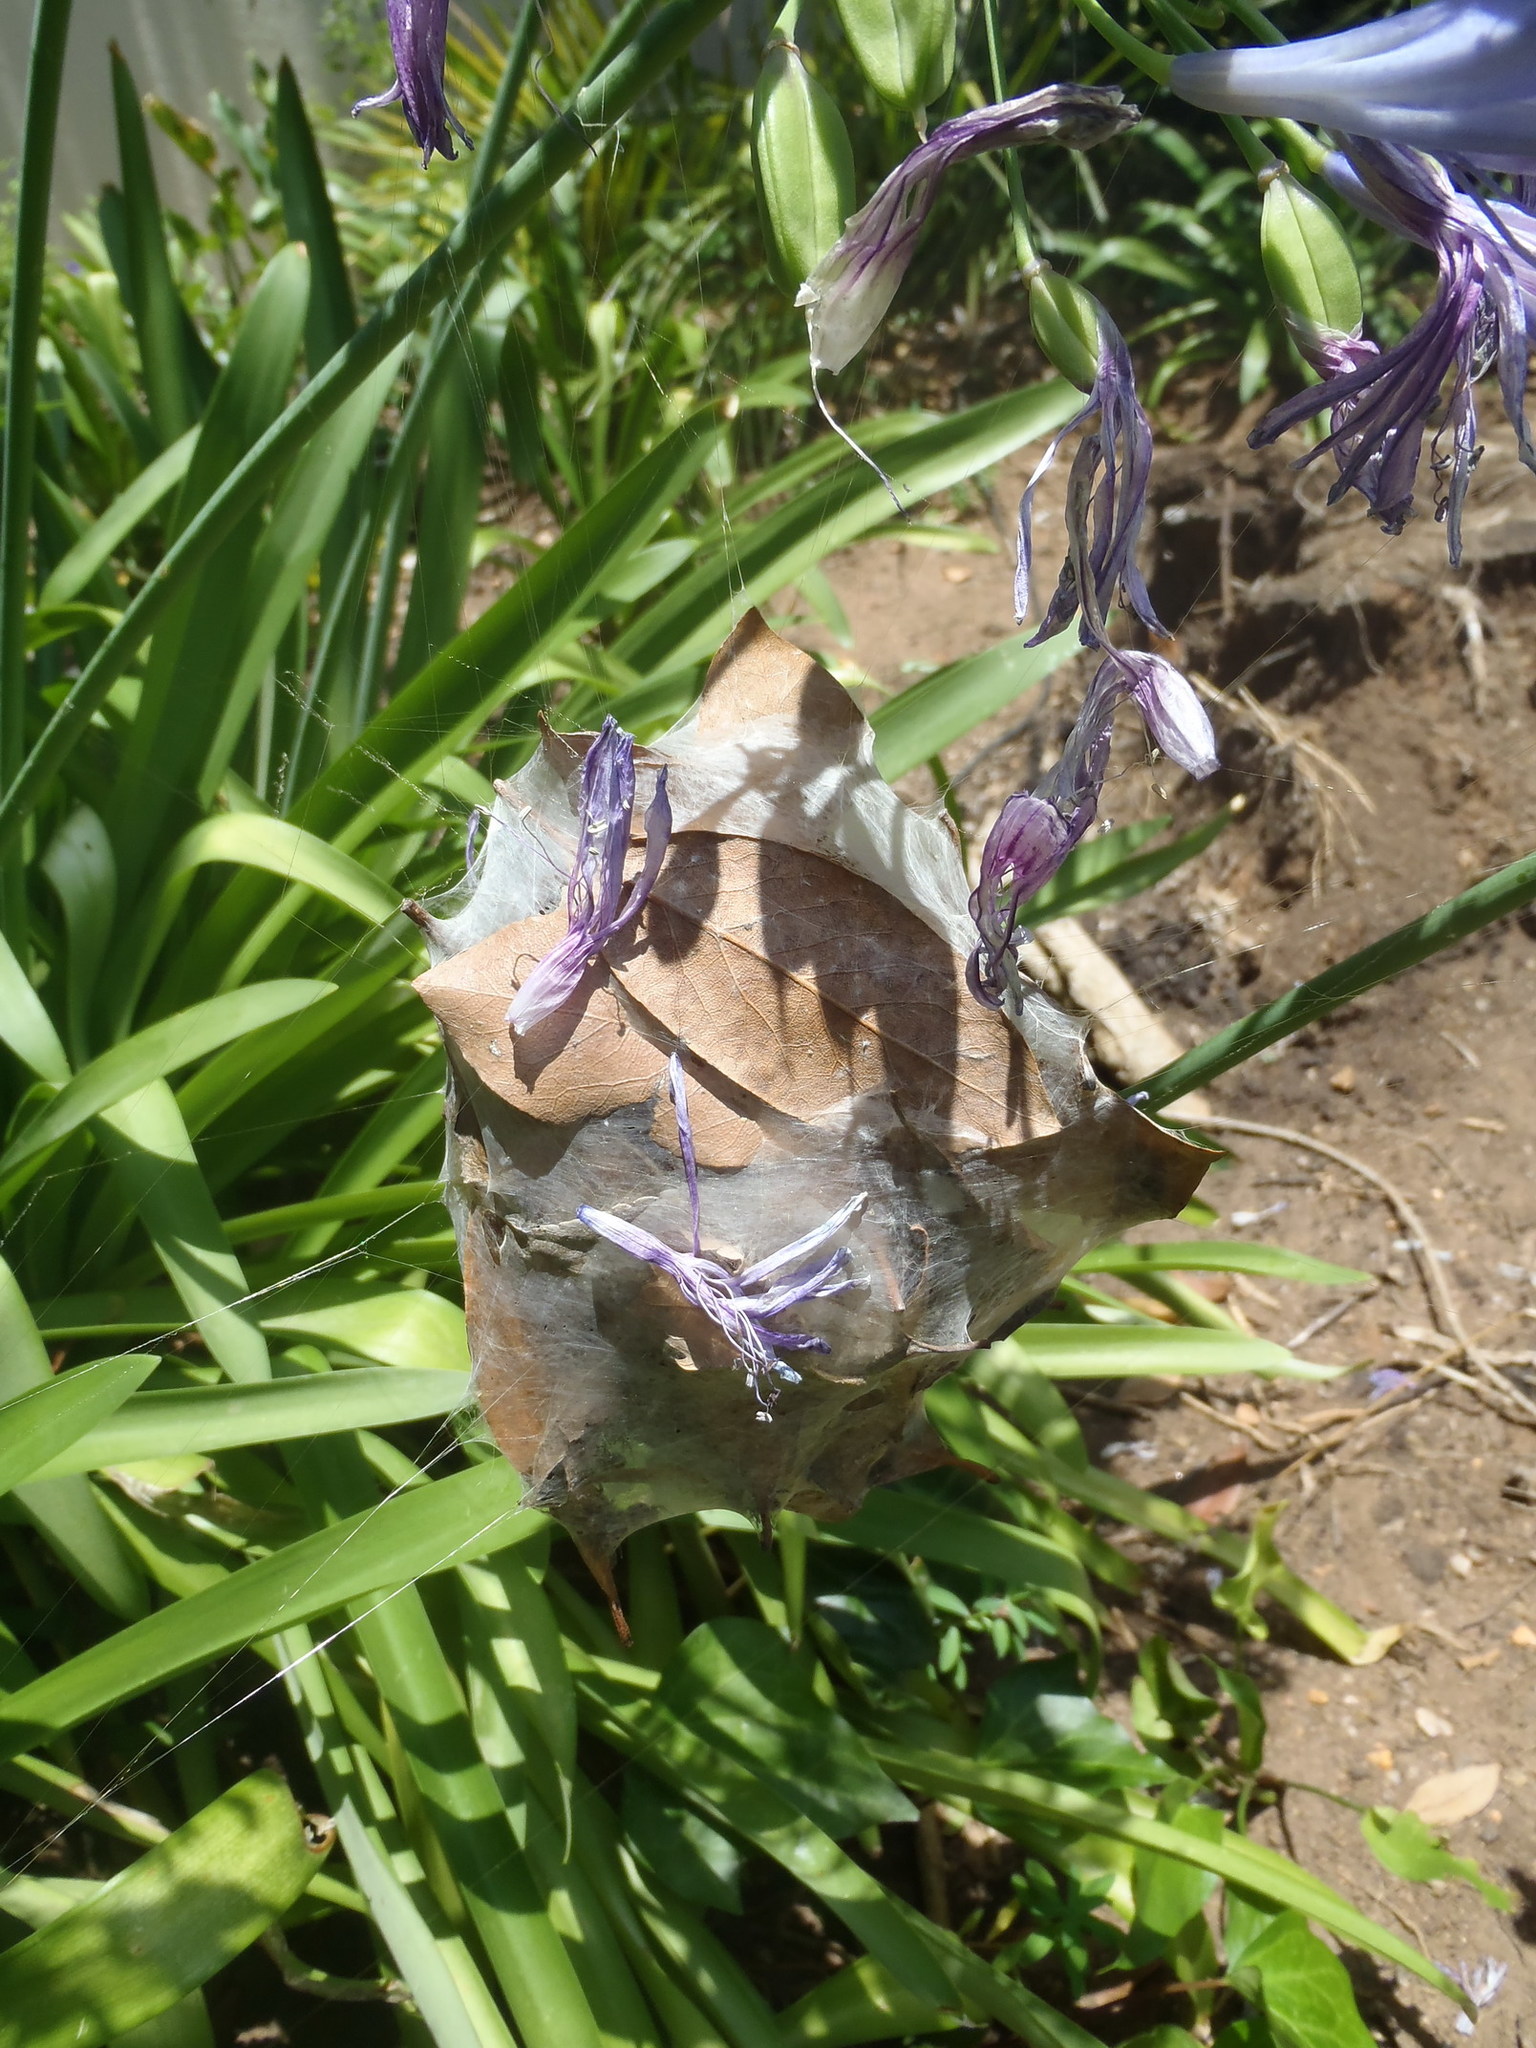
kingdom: Animalia
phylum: Arthropoda
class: Arachnida
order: Araneae
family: Sparassidae
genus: Palystes
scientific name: Palystes superciliosus
